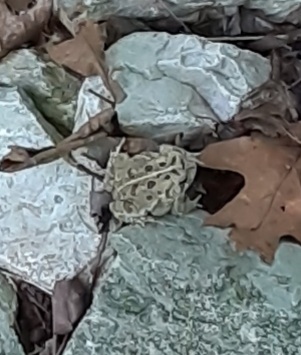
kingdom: Animalia
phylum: Chordata
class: Amphibia
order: Anura
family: Bufonidae
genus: Anaxyrus
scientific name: Anaxyrus fowleri
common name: Fowler's toad
